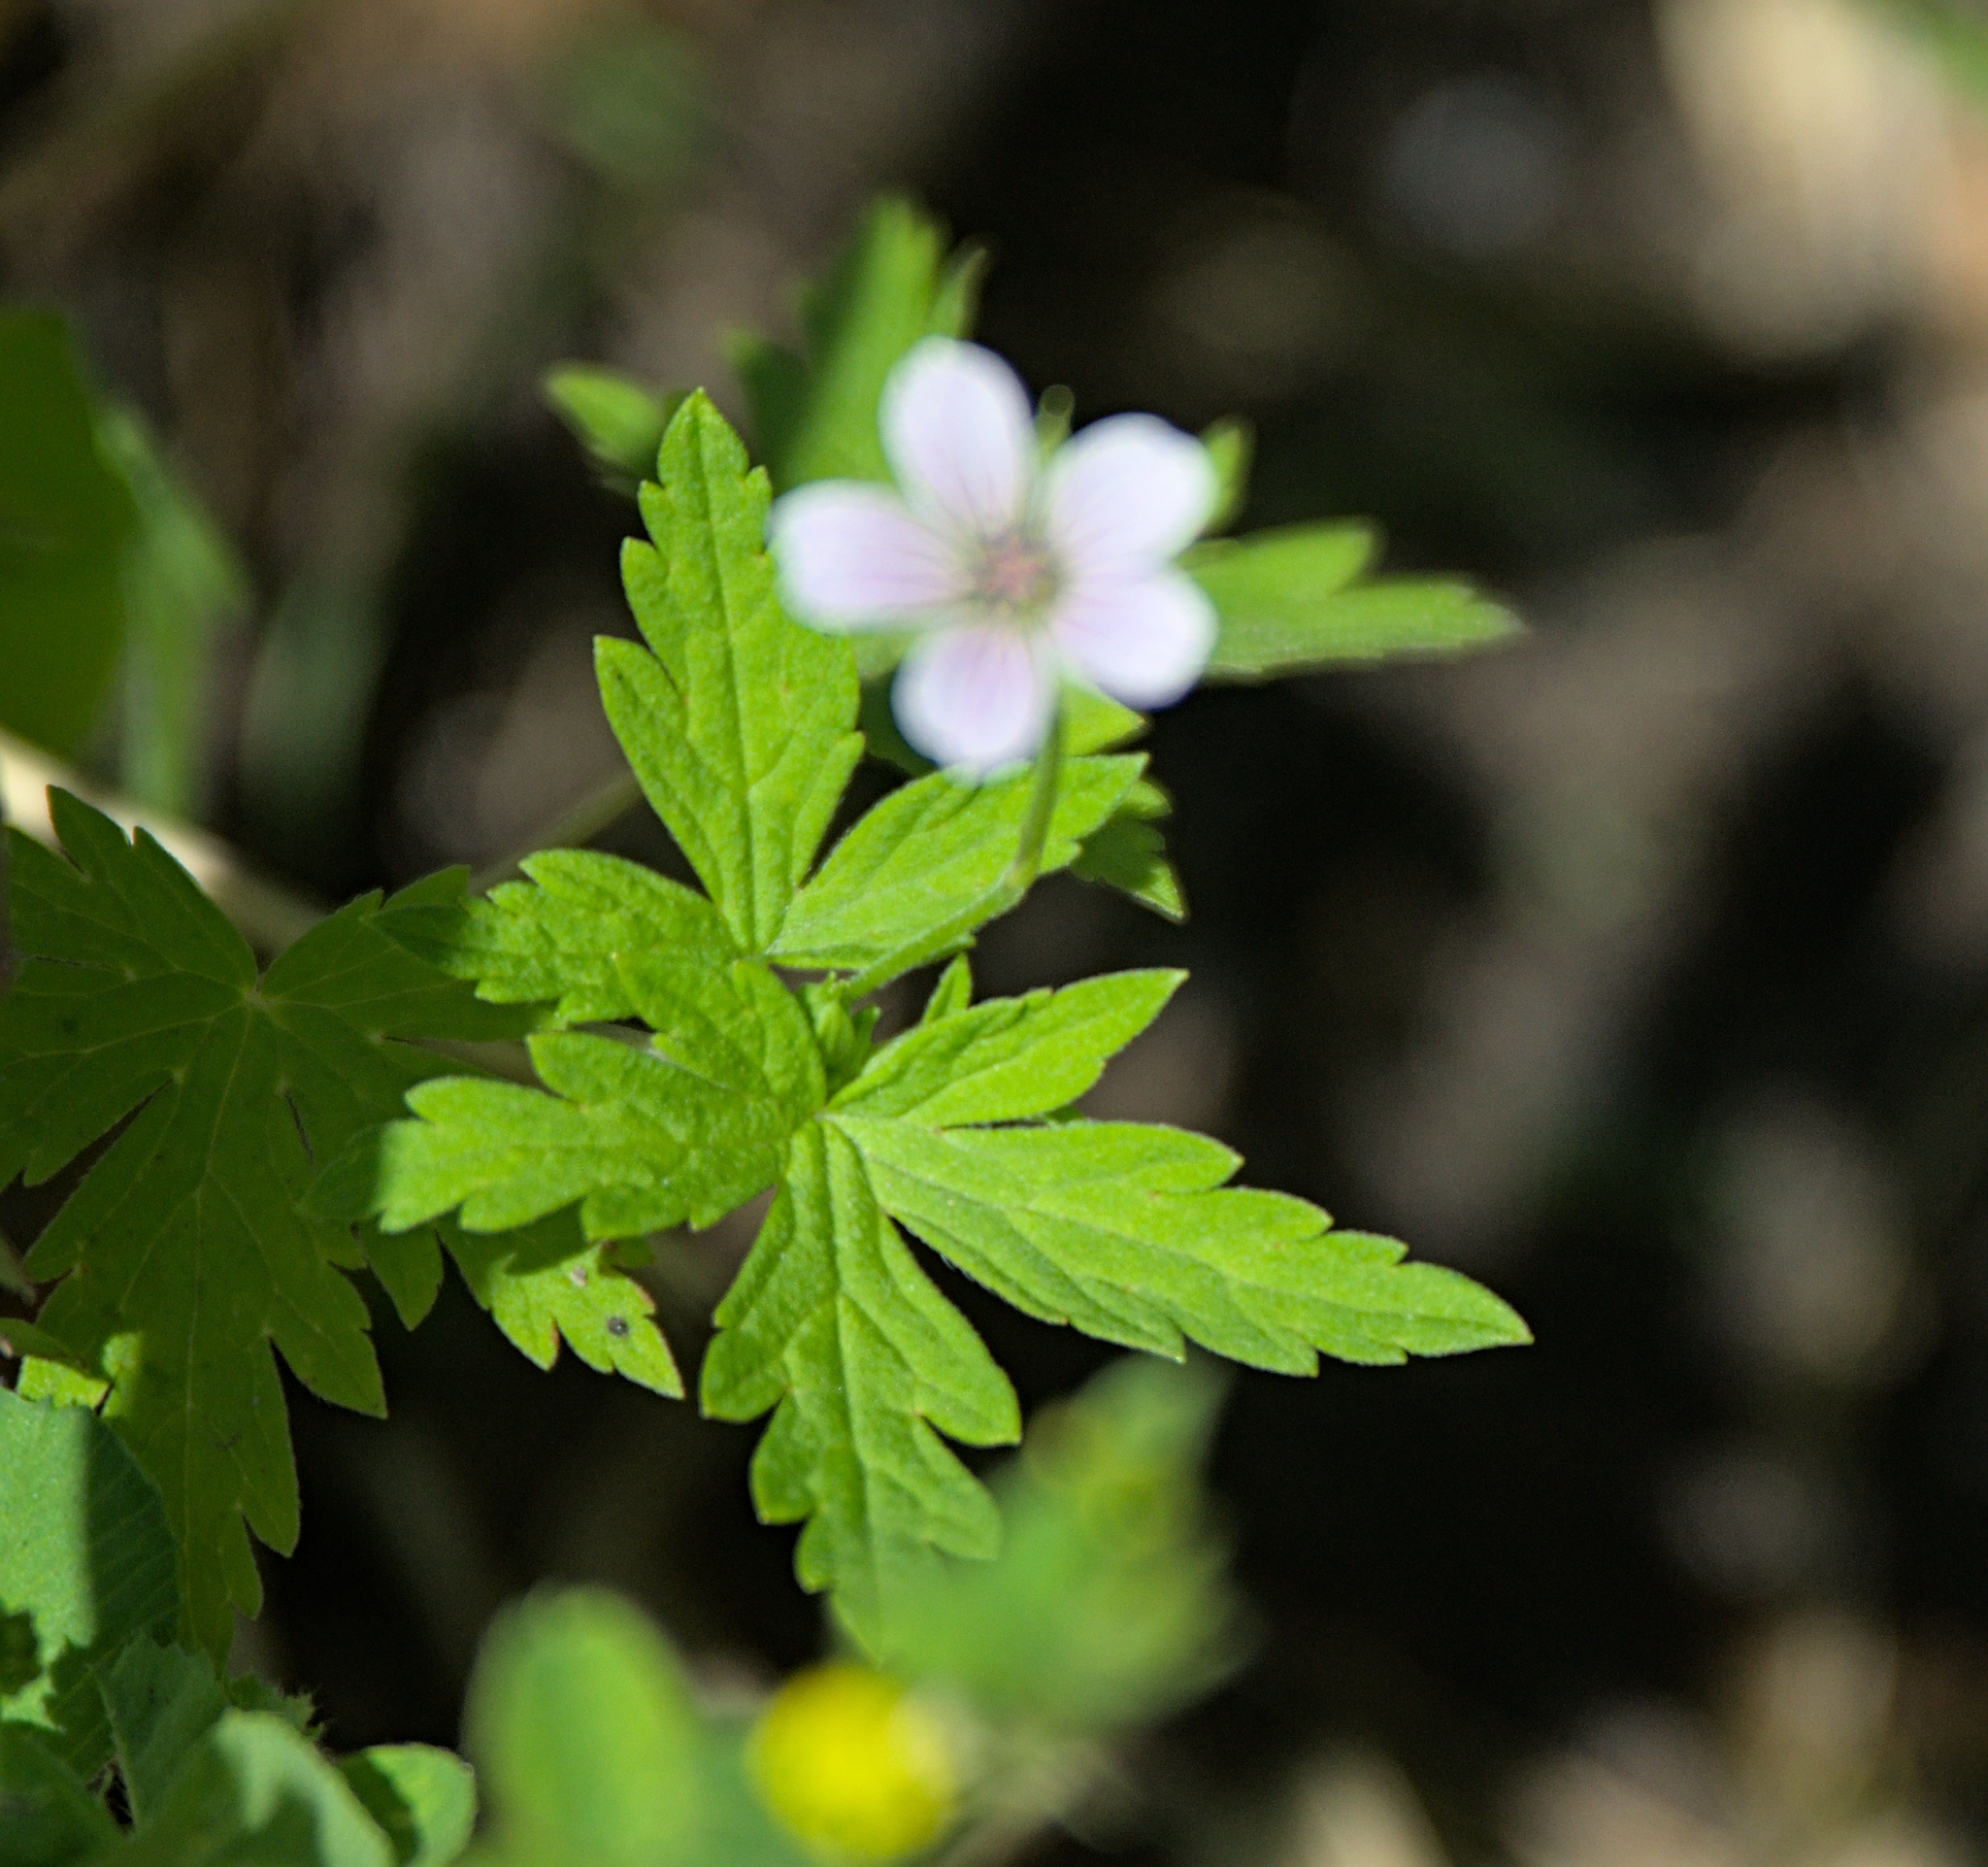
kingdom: Plantae
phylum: Tracheophyta
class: Magnoliopsida
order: Geraniales
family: Geraniaceae
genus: Geranium
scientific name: Geranium sibiricum
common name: Siberian crane's-bill
